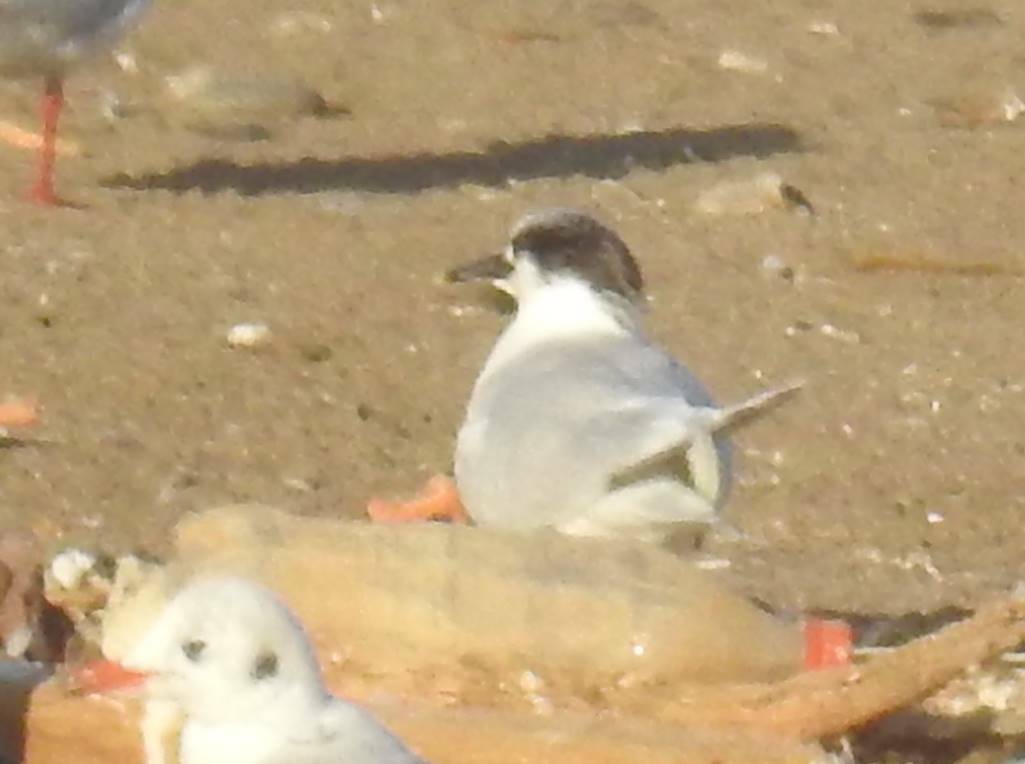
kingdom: Animalia
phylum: Chordata
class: Aves
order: Charadriiformes
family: Laridae
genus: Thalasseus
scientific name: Thalasseus sandvicensis
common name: Sandwich tern
